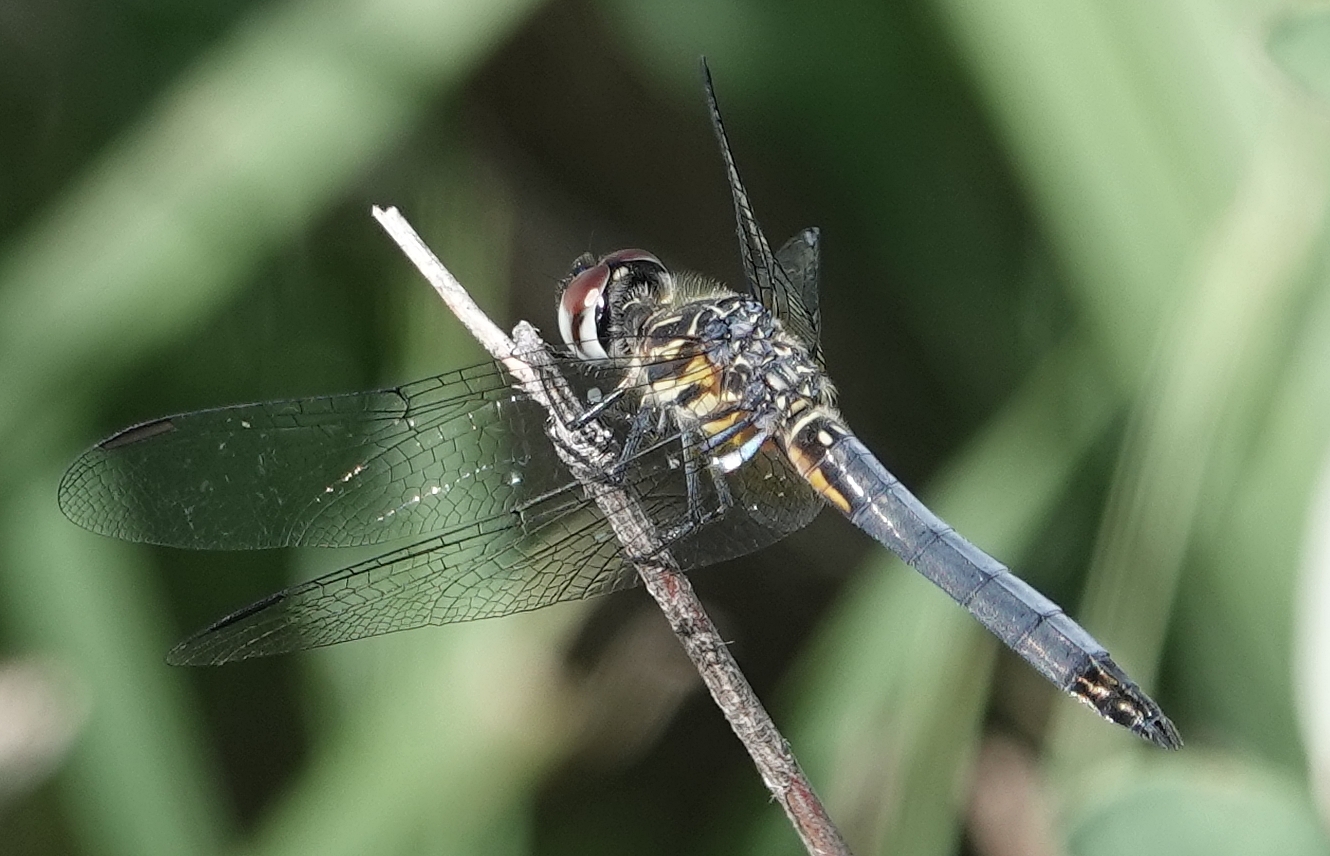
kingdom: Animalia
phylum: Arthropoda
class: Insecta
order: Odonata
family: Libellulidae
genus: Pachydiplax
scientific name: Pachydiplax longipennis
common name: Blue dasher
